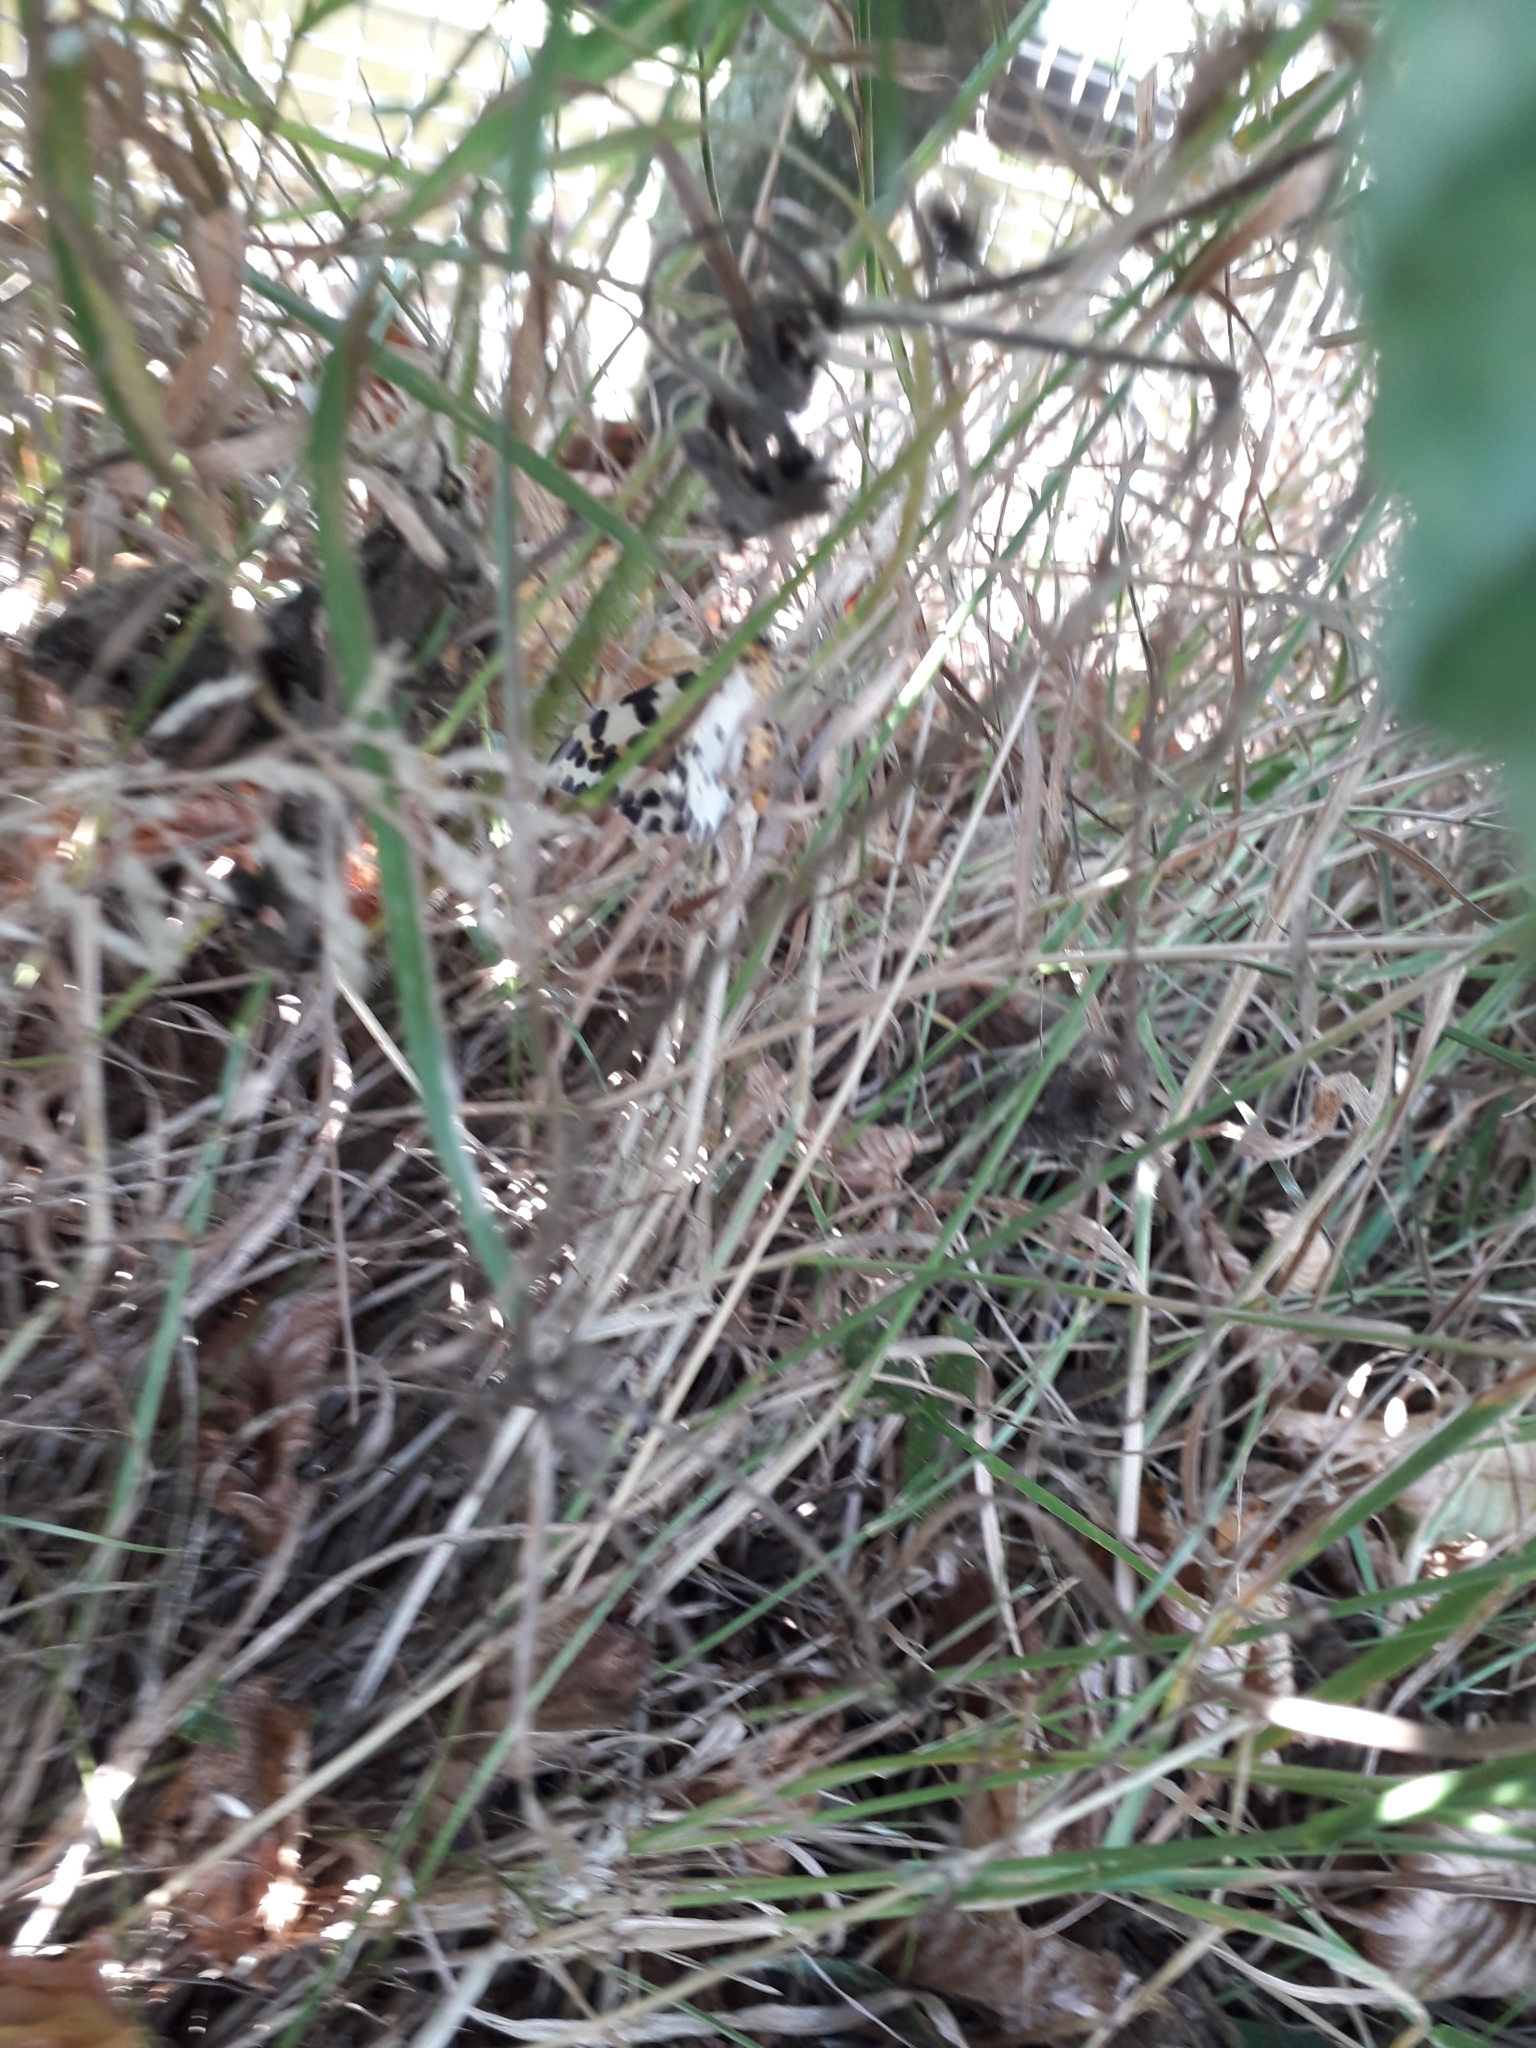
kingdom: Animalia
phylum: Arthropoda
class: Insecta
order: Lepidoptera
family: Geometridae
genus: Abraxas
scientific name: Abraxas grossulariata
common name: Magpie
